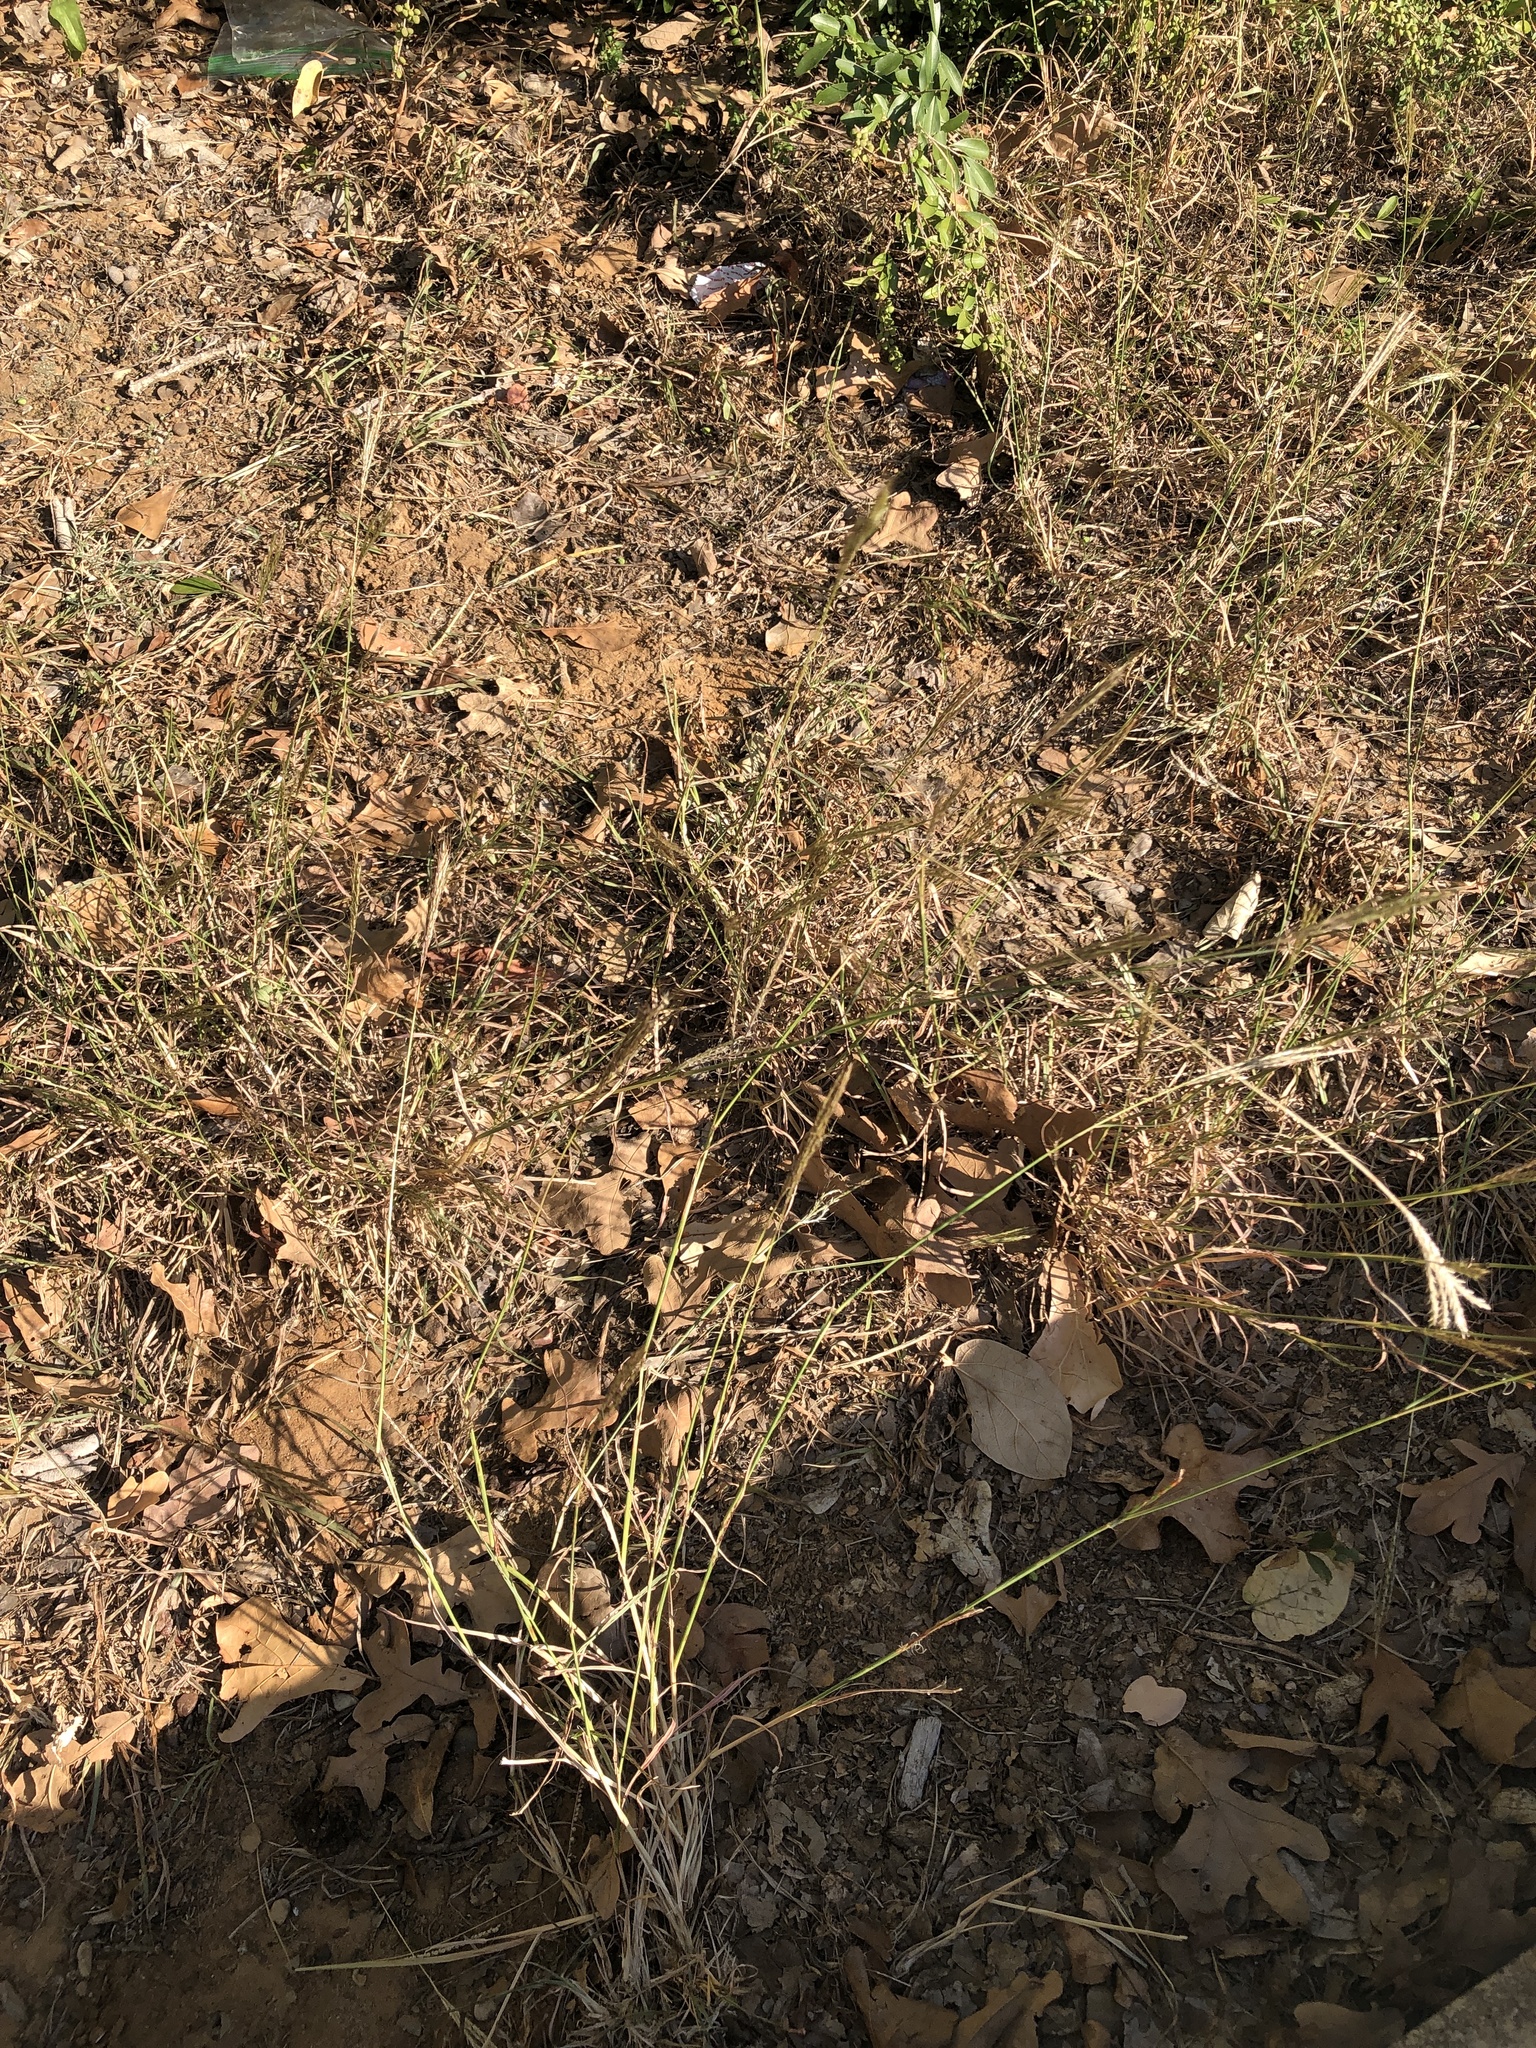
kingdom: Plantae
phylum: Tracheophyta
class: Liliopsida
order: Poales
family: Poaceae
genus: Bothriochloa
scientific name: Bothriochloa ischaemum
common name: Yellow bluestem
